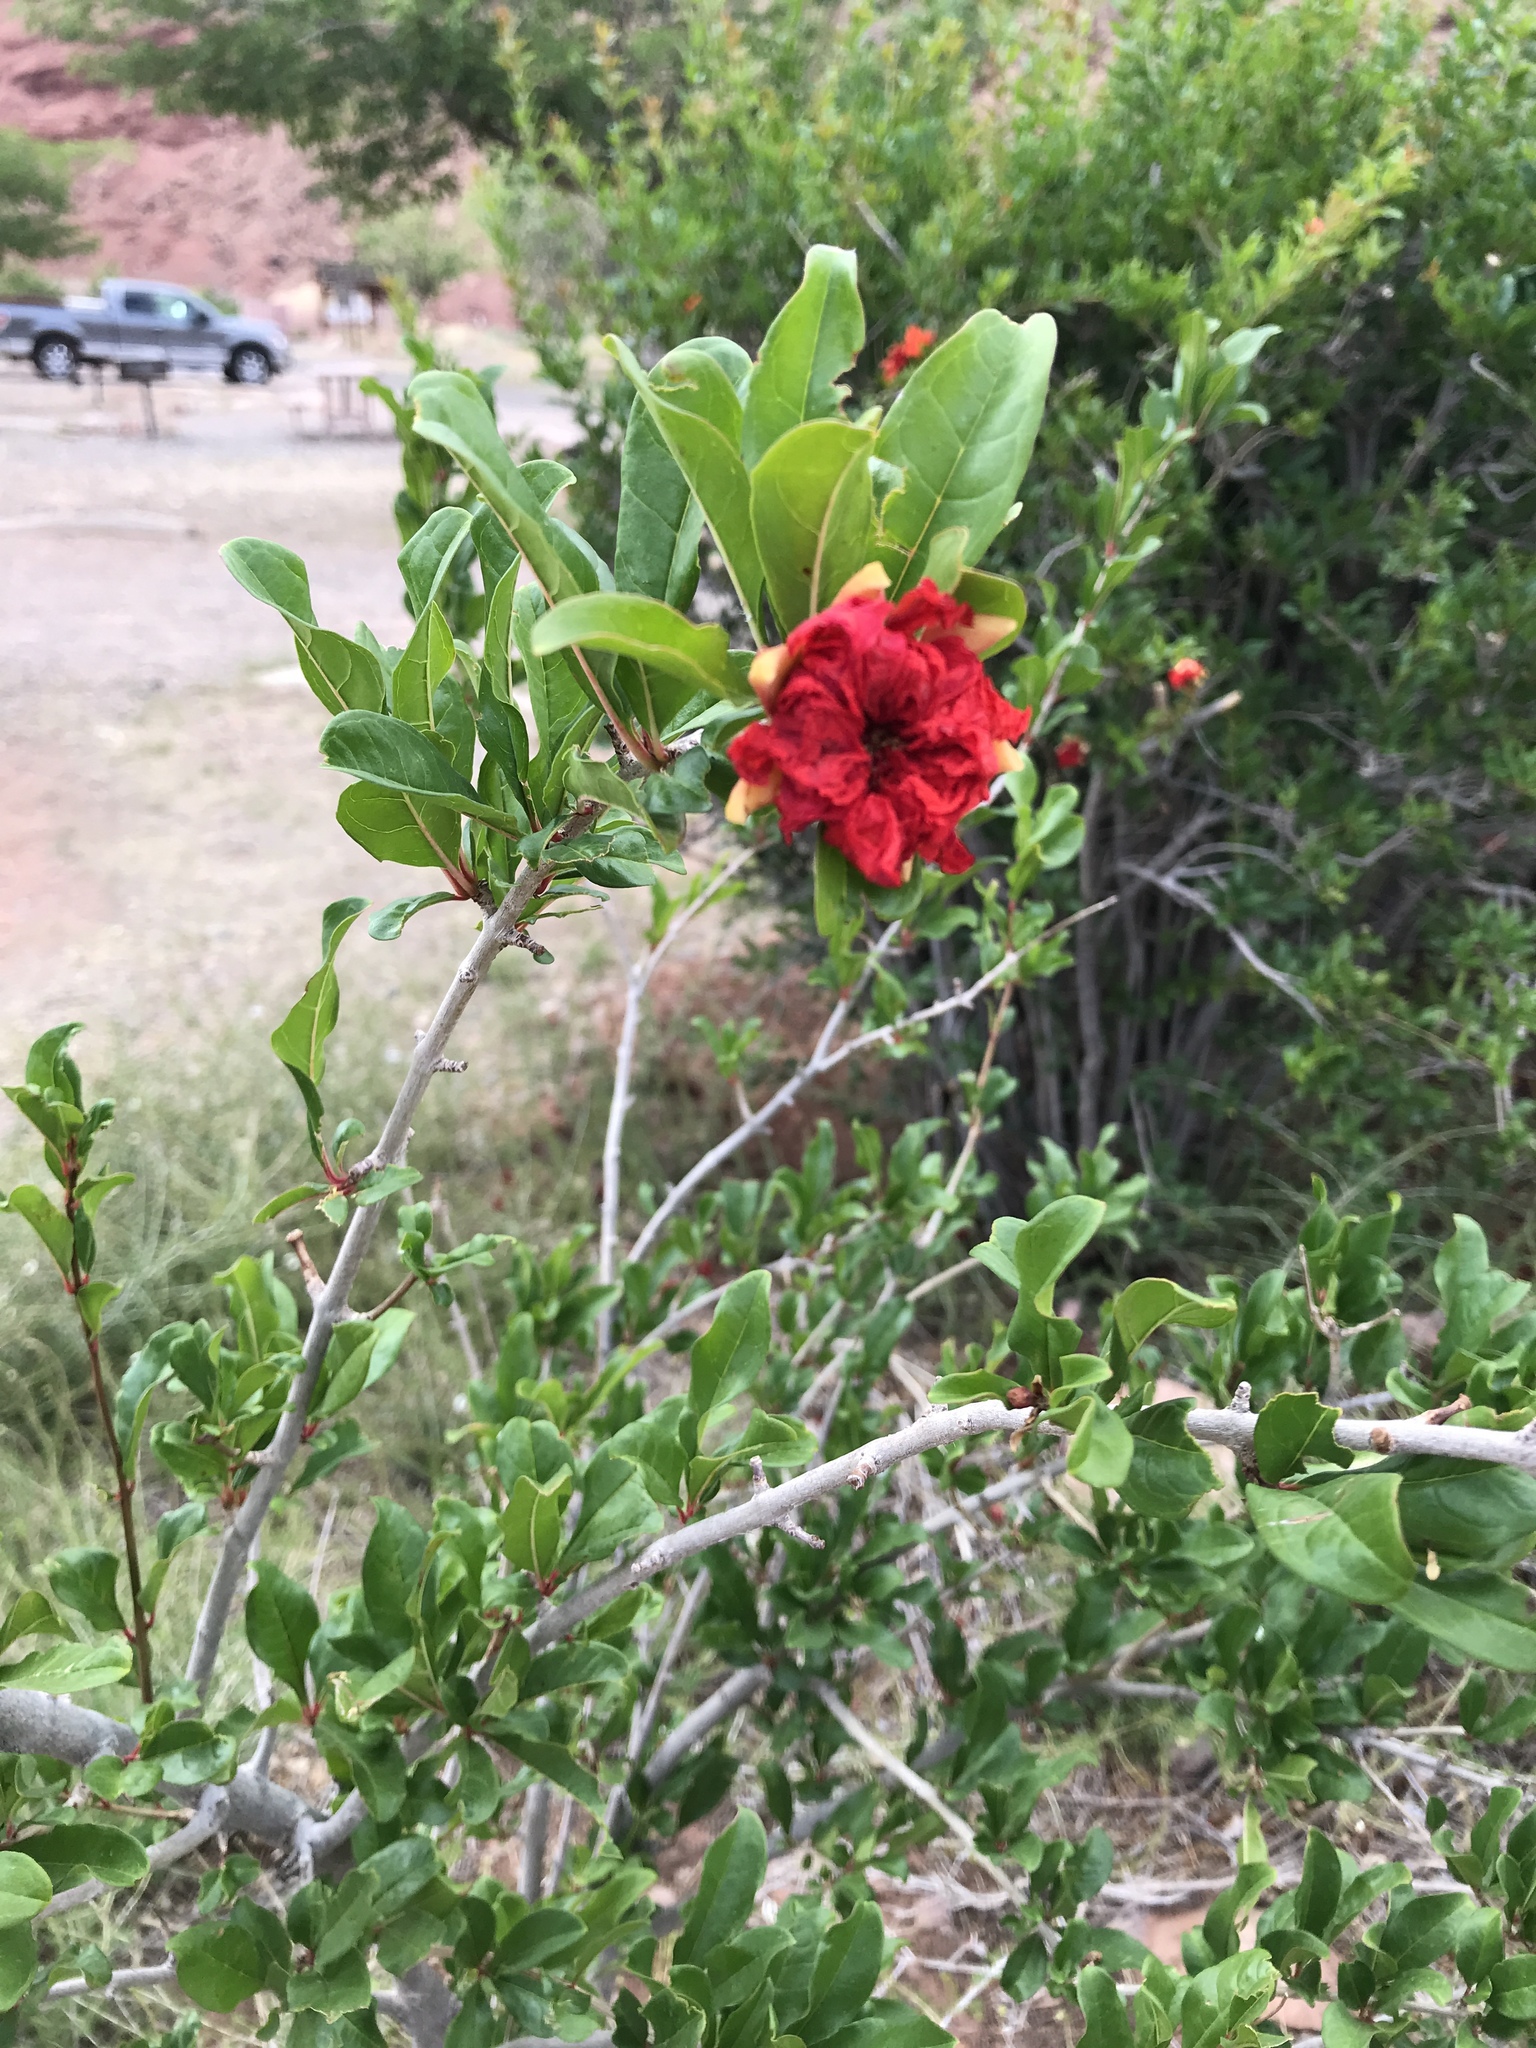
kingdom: Plantae
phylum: Tracheophyta
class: Magnoliopsida
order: Myrtales
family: Lythraceae
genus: Punica
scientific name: Punica granatum
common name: Pomegranate
